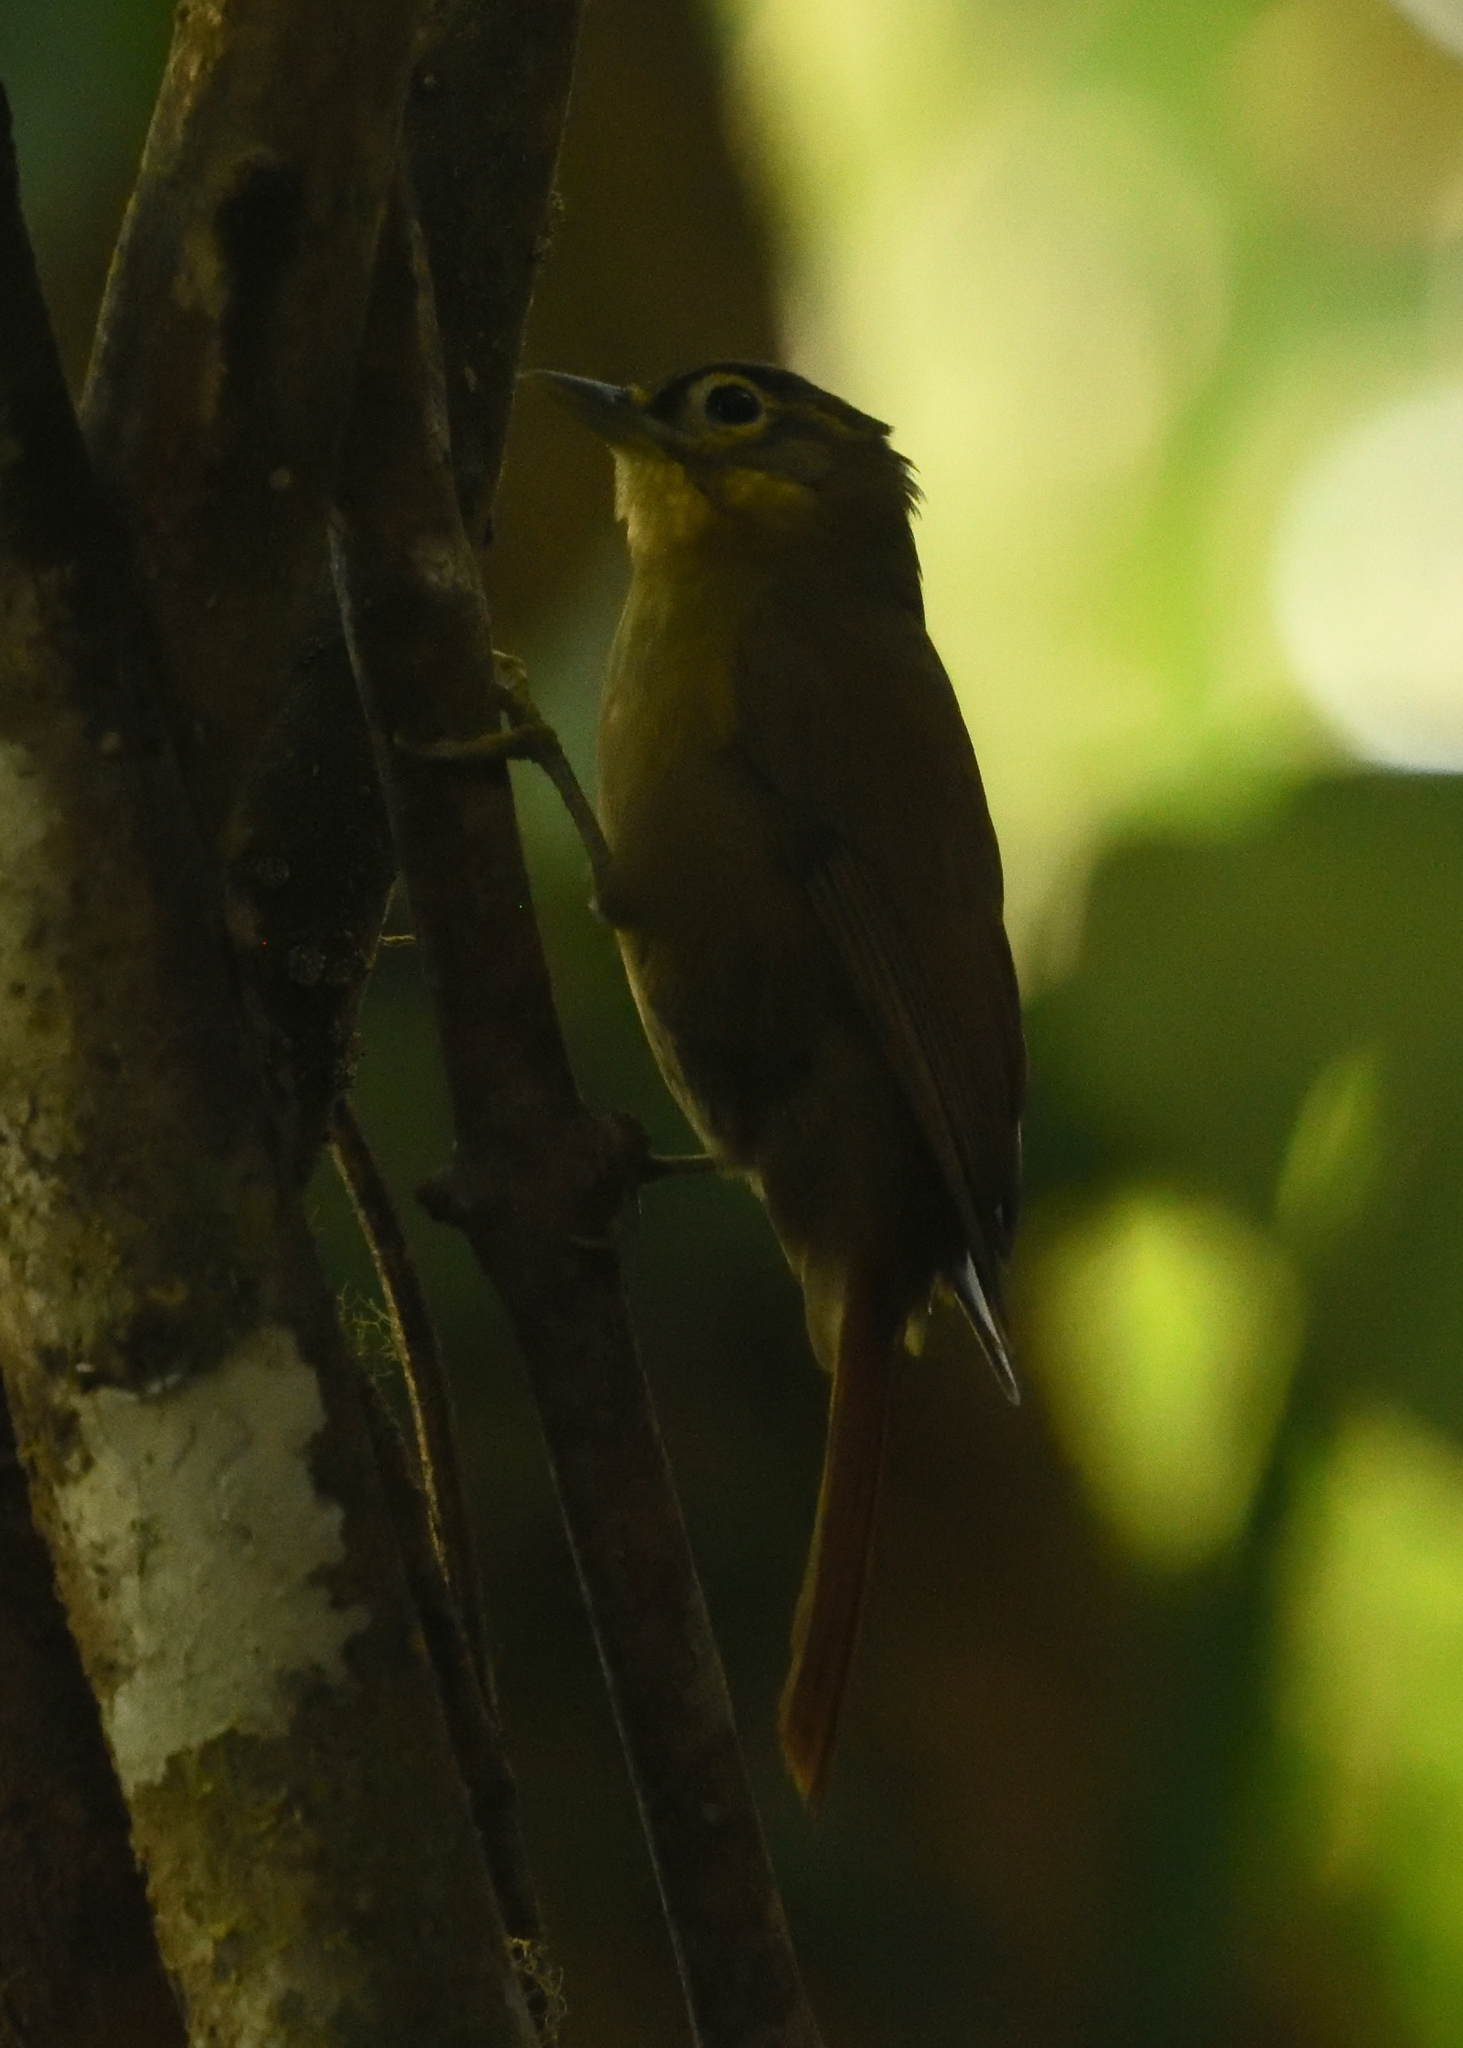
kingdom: Animalia
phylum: Chordata
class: Aves
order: Passeriformes
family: Furnariidae
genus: Anabacerthia
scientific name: Anabacerthia striaticollis
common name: Montane foliage-gleaner
